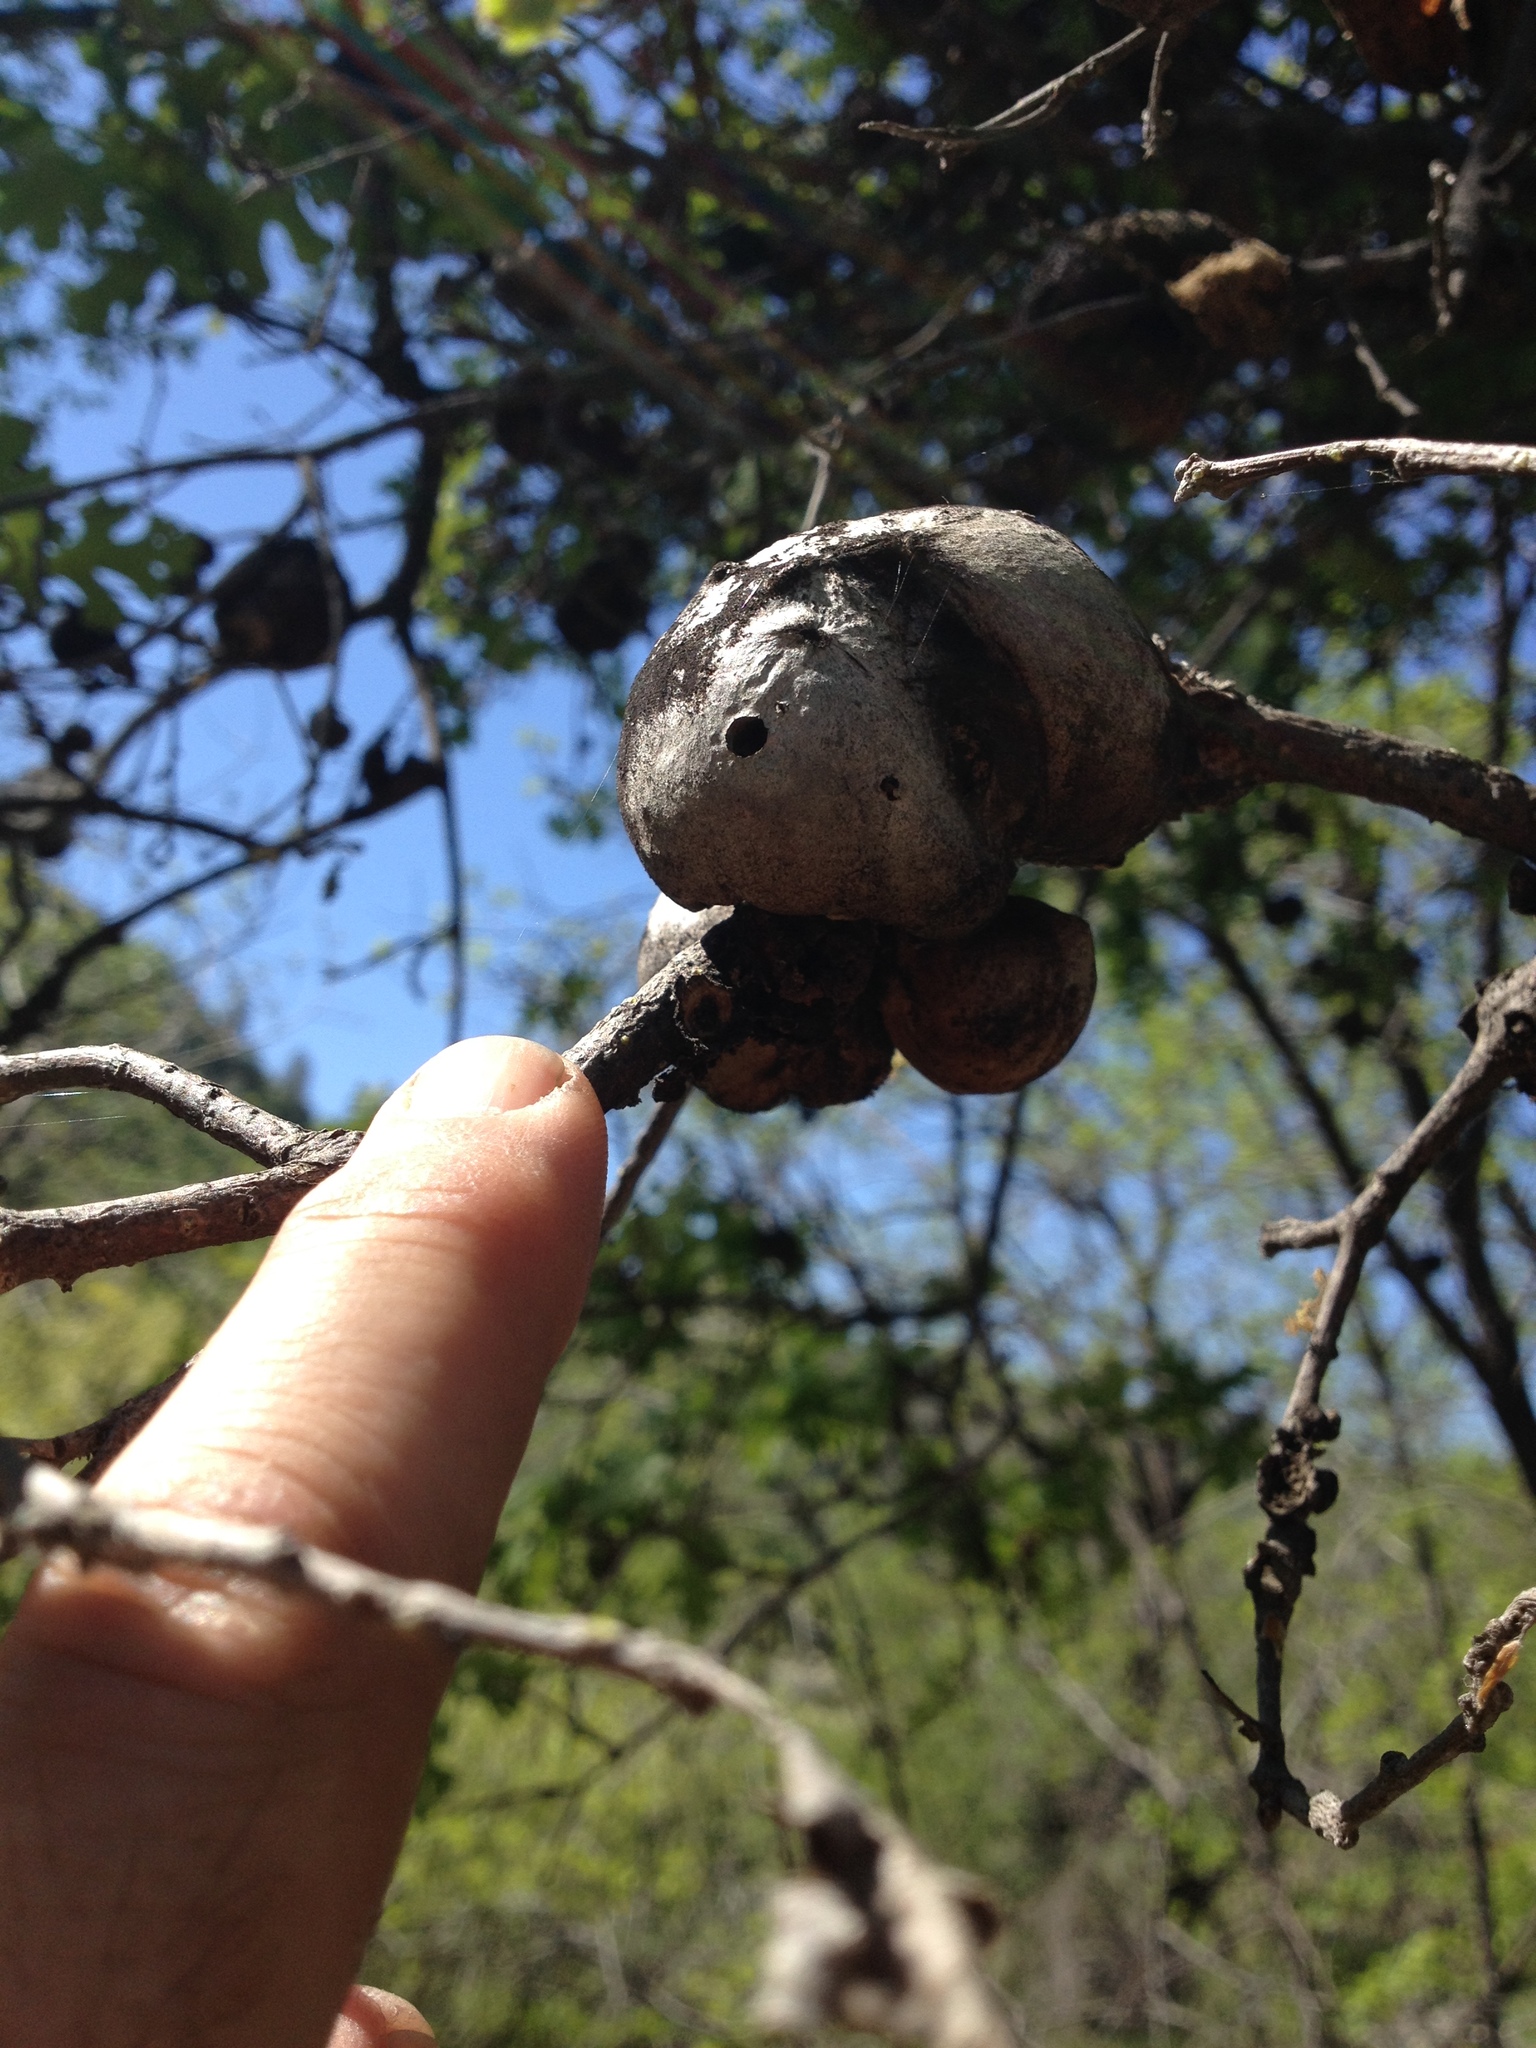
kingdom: Animalia
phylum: Arthropoda
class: Insecta
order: Hymenoptera
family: Cynipidae
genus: Andricus
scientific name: Andricus quercuscalifornicus
